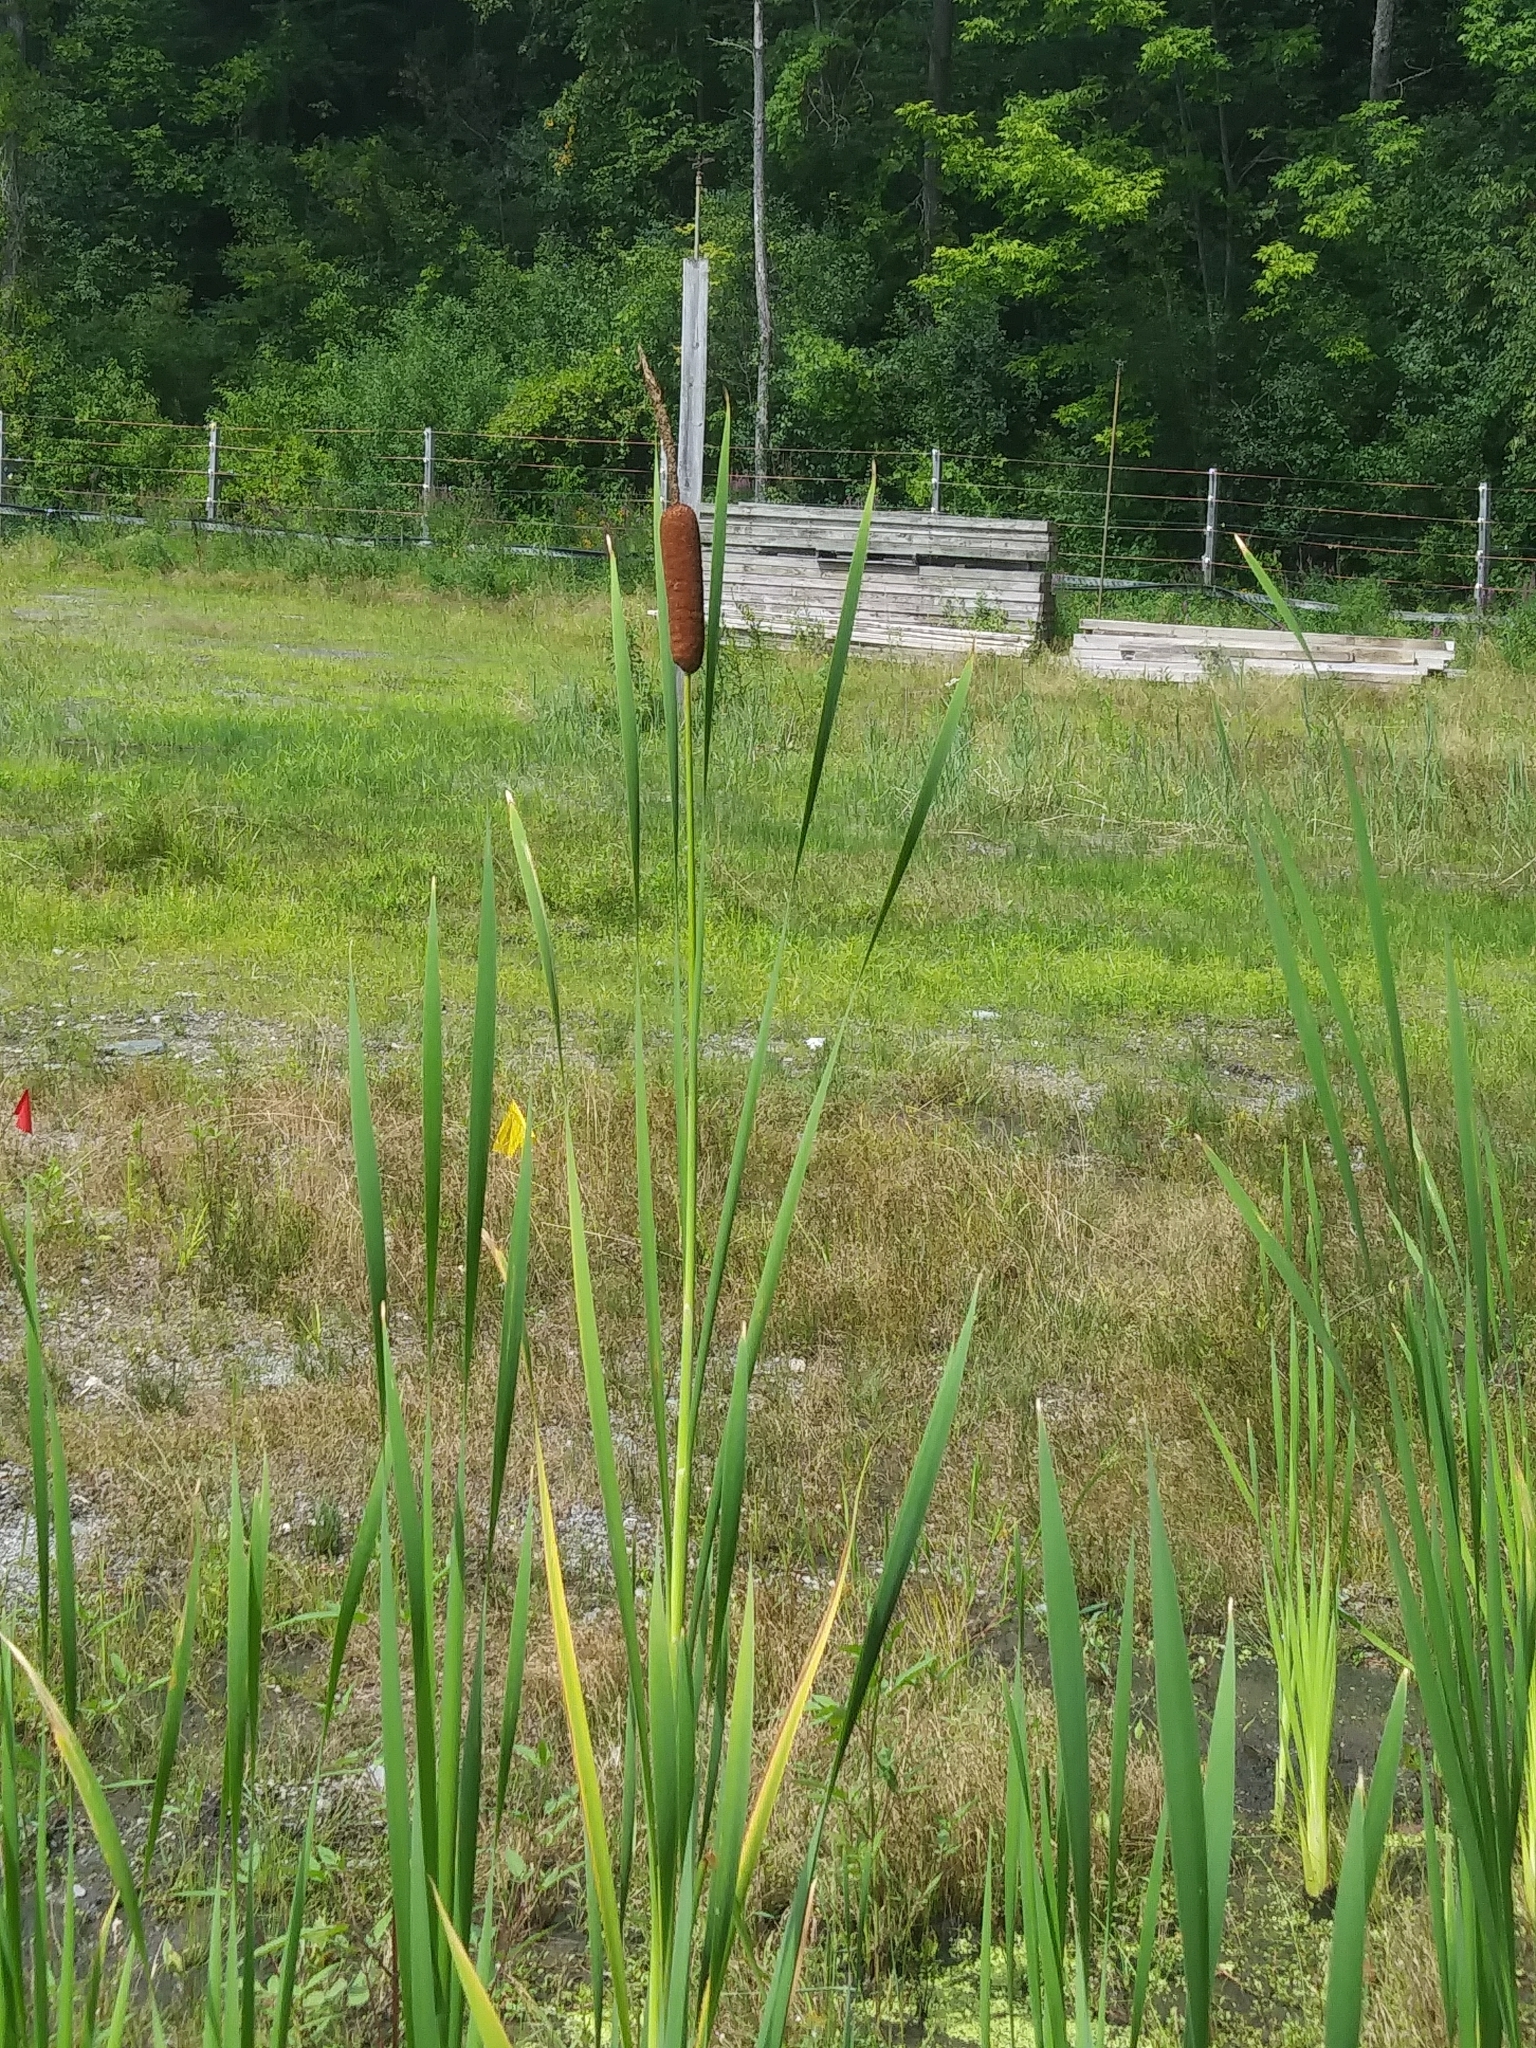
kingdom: Plantae
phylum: Tracheophyta
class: Liliopsida
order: Poales
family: Typhaceae
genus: Typha
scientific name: Typha latifolia
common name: Broadleaf cattail
